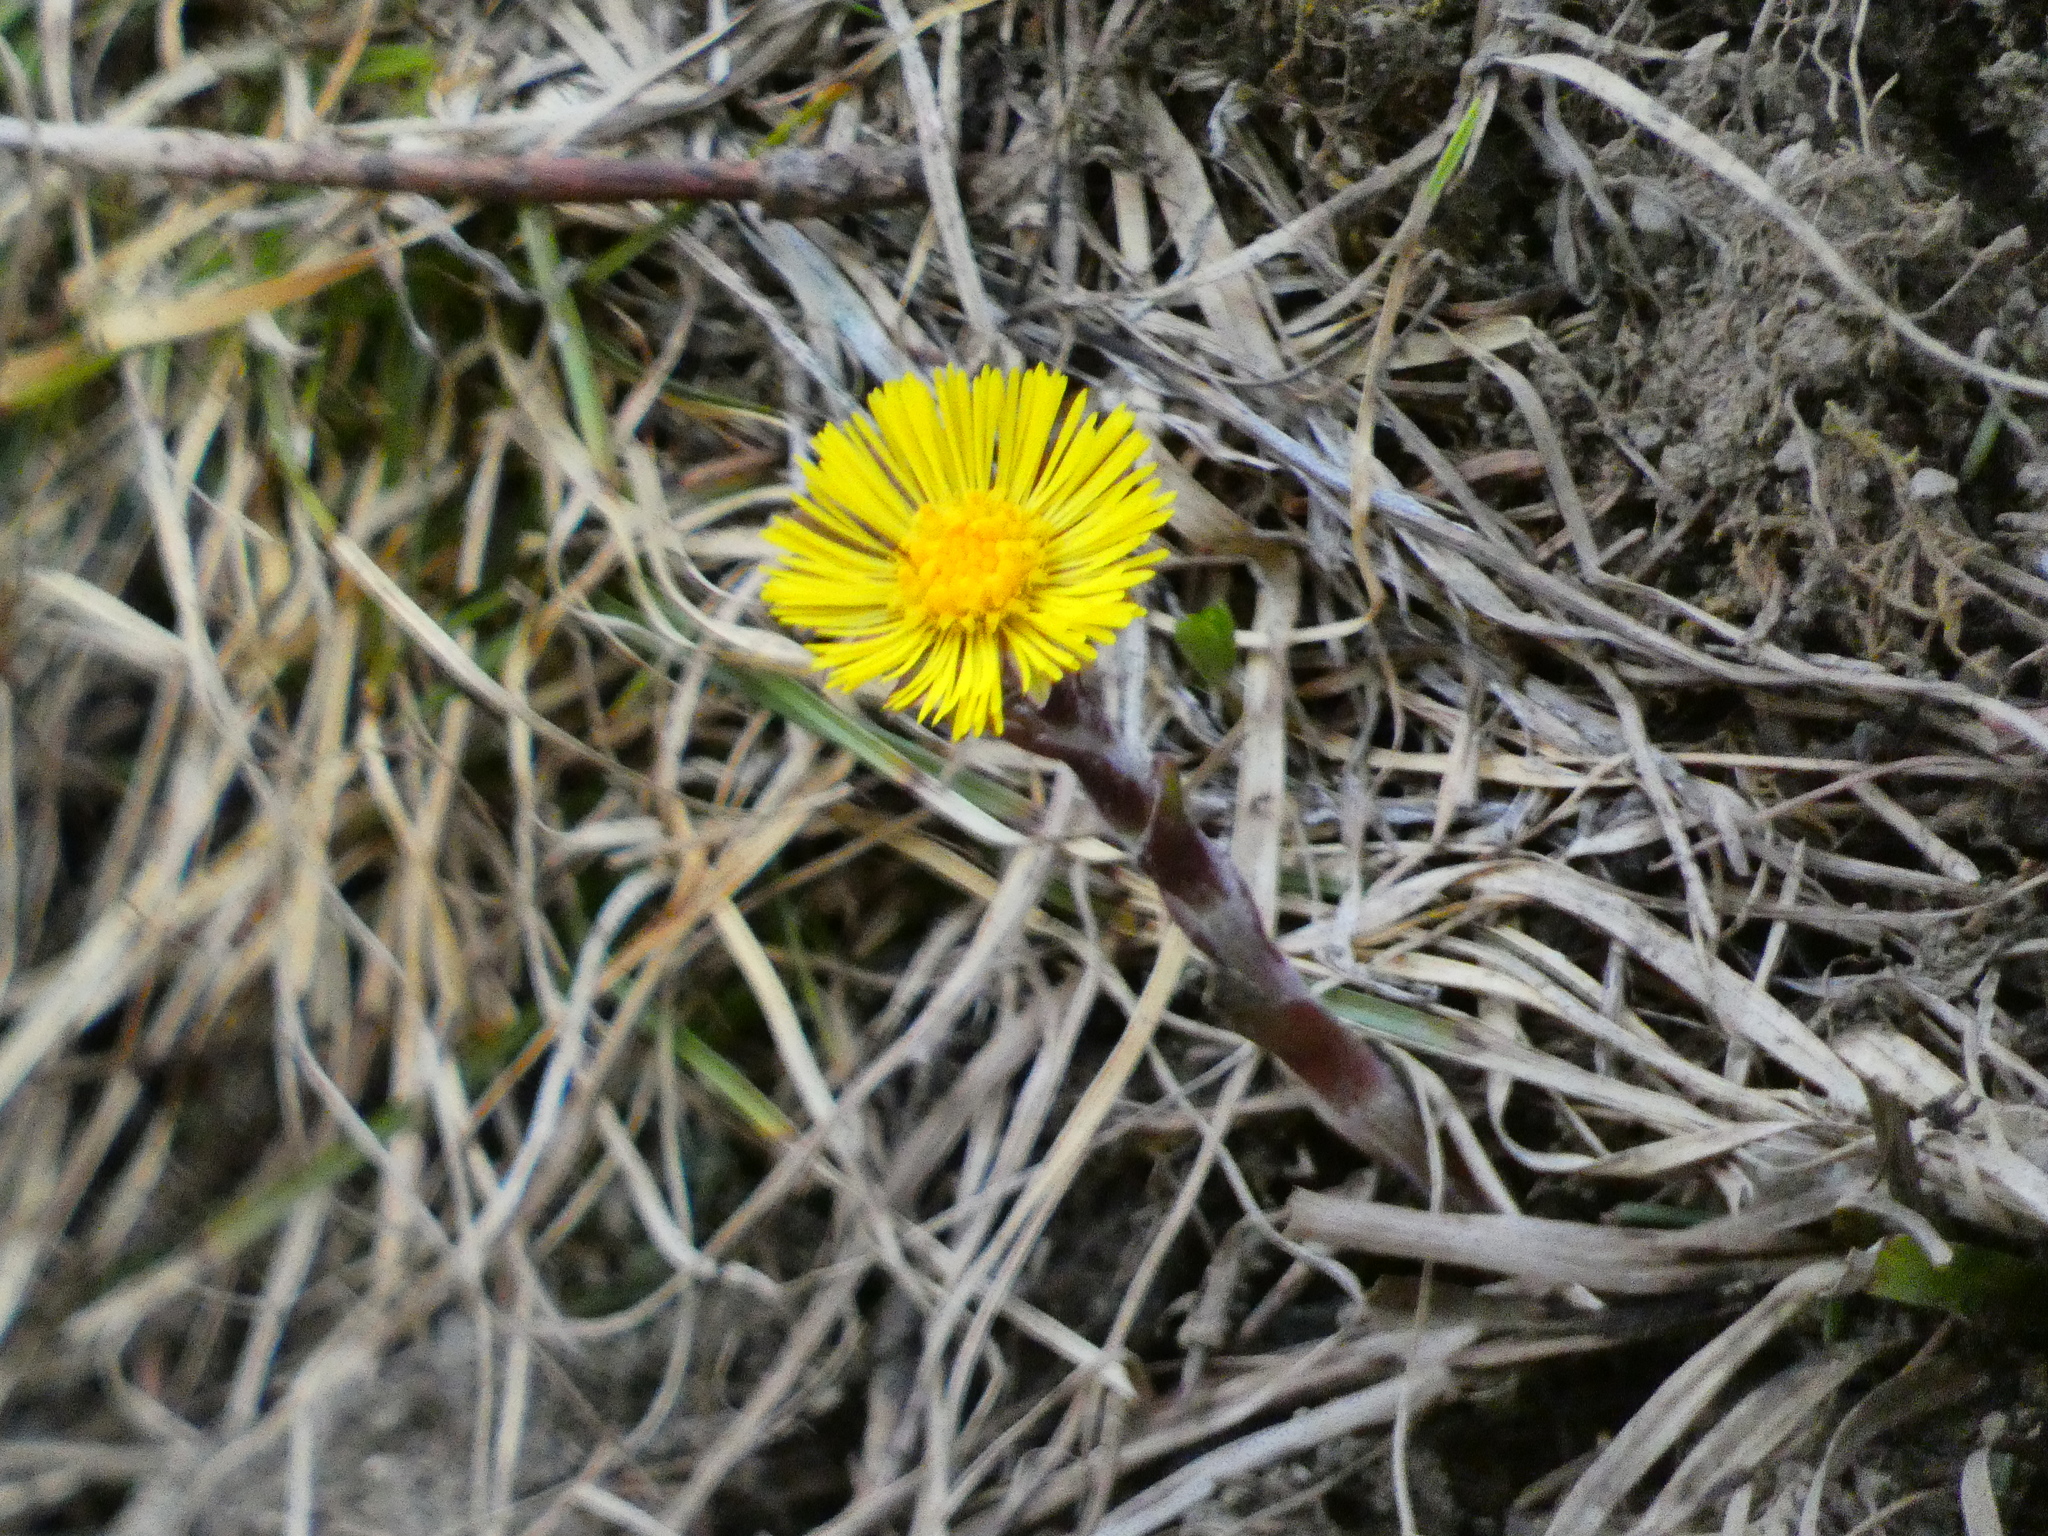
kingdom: Plantae
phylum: Tracheophyta
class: Magnoliopsida
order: Asterales
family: Asteraceae
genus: Tussilago
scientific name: Tussilago farfara
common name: Coltsfoot
